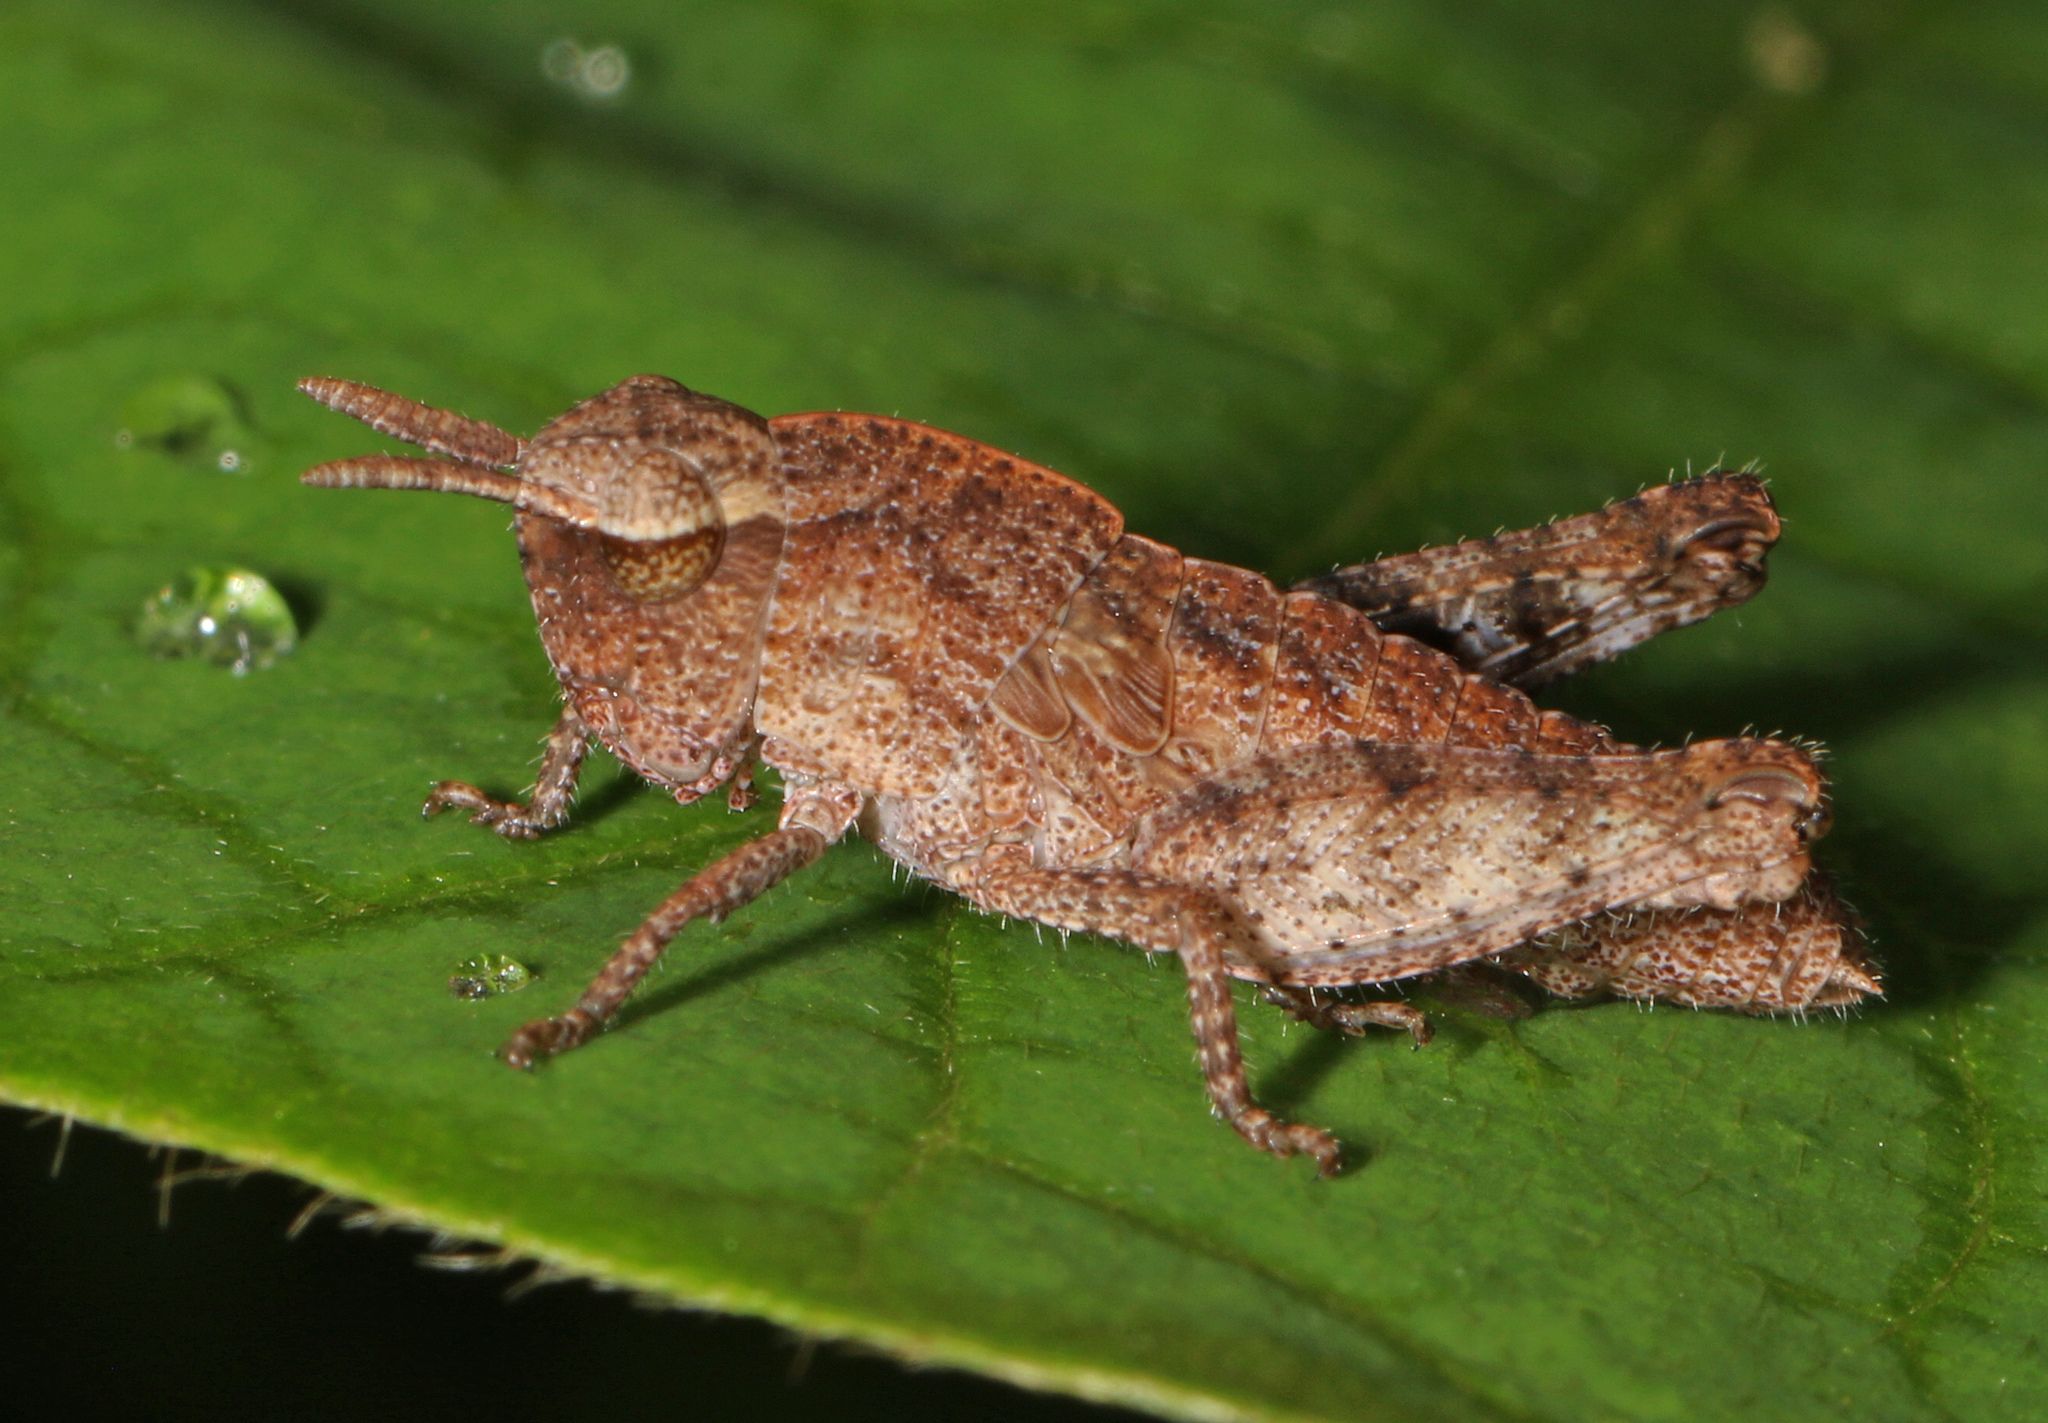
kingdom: Animalia
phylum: Arthropoda
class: Insecta
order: Orthoptera
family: Acrididae
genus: Chortophaga
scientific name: Chortophaga viridifasciata
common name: Green-striped grasshopper
